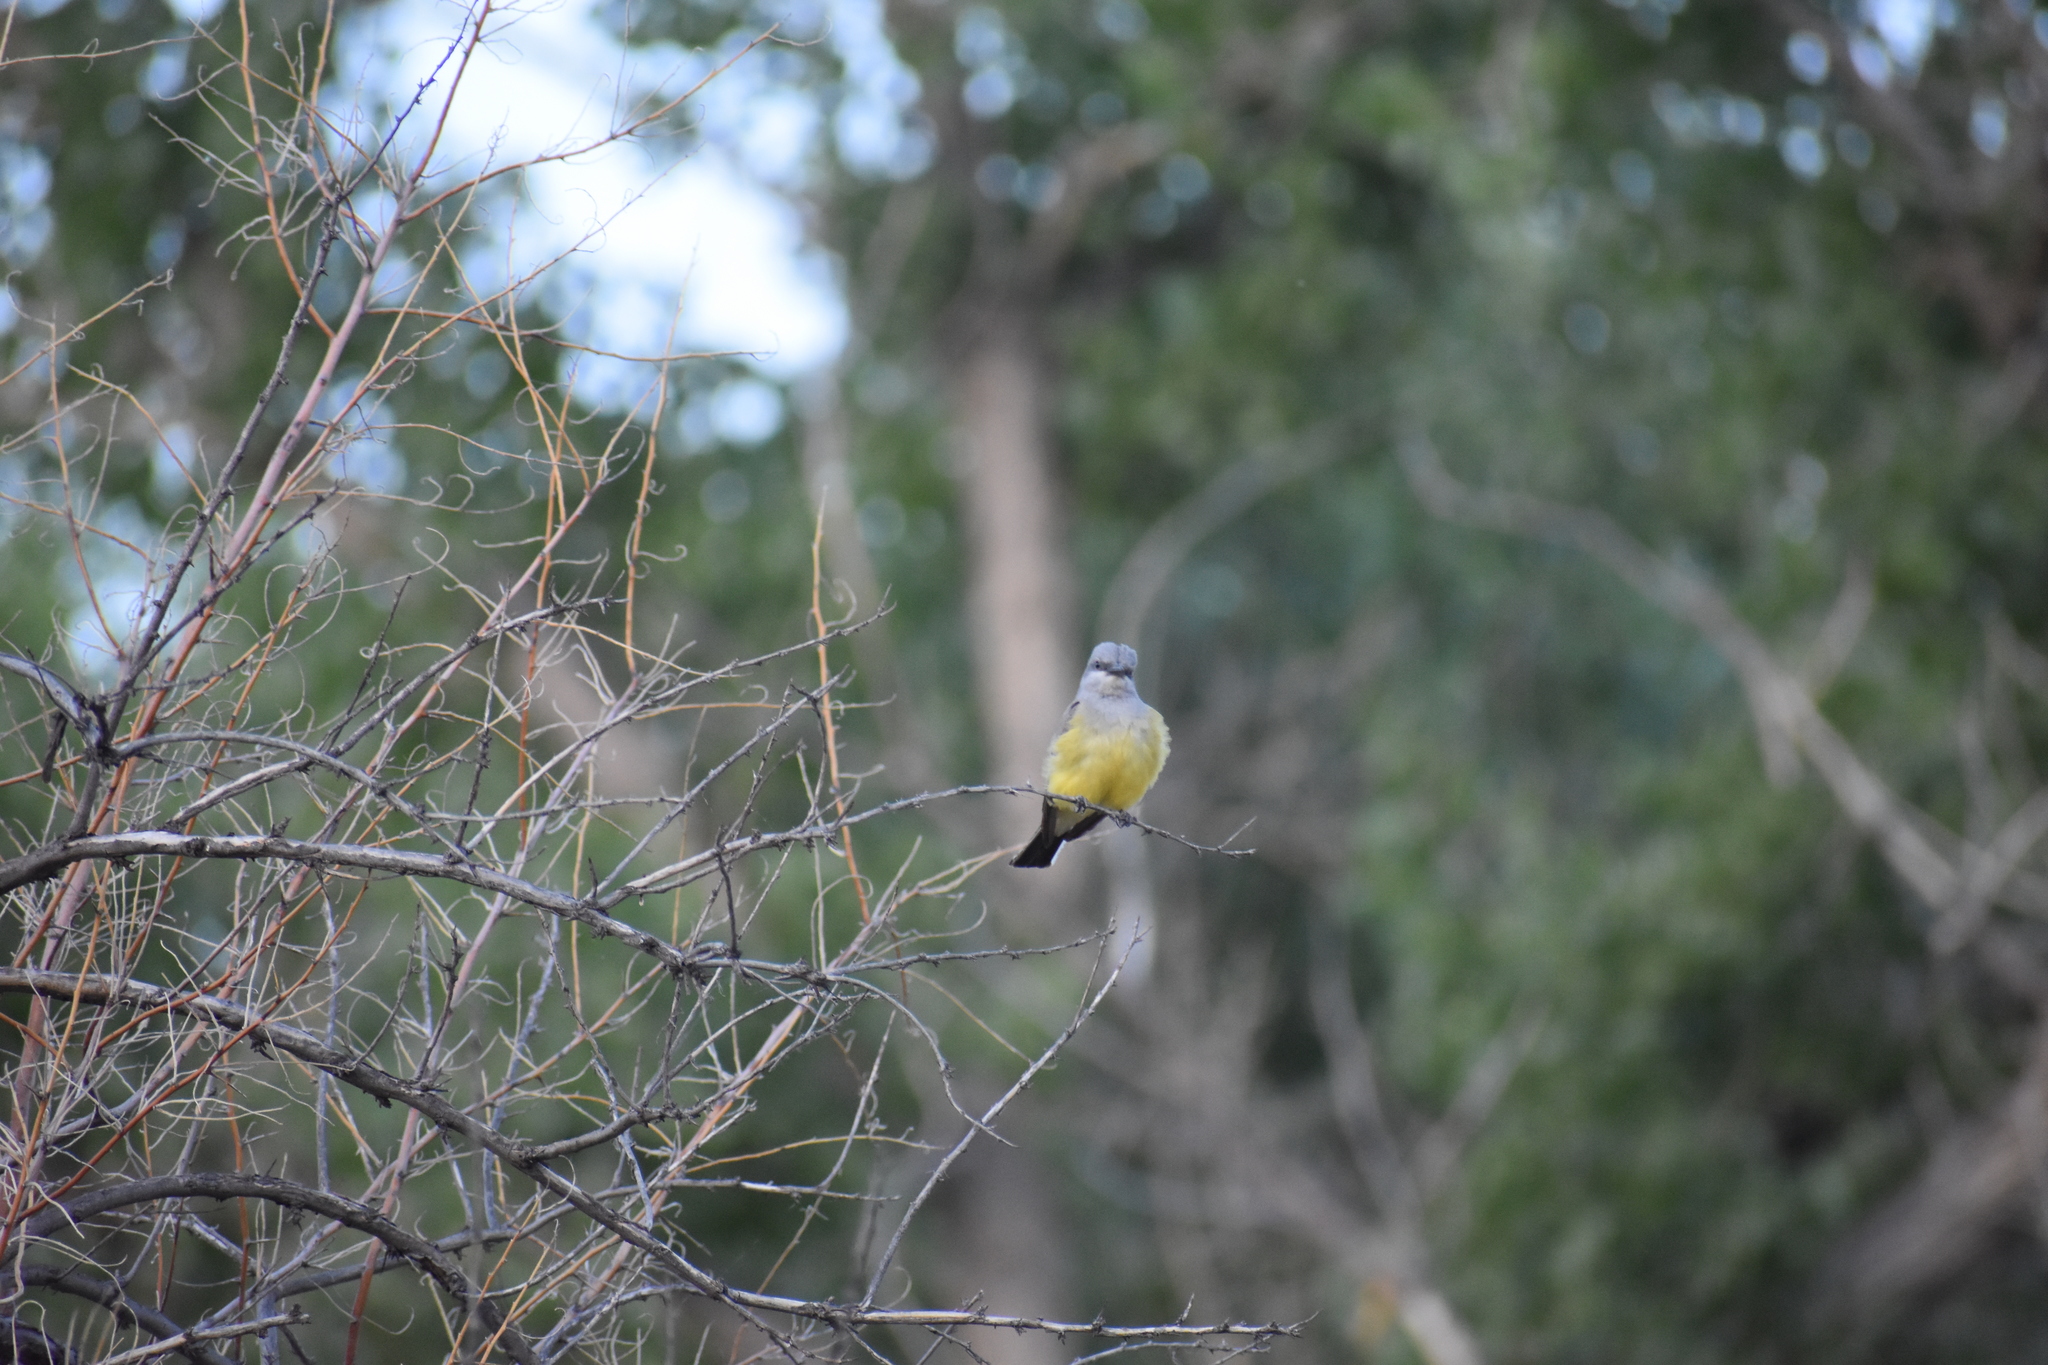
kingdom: Animalia
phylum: Chordata
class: Aves
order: Passeriformes
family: Tyrannidae
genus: Tyrannus
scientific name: Tyrannus verticalis
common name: Western kingbird
